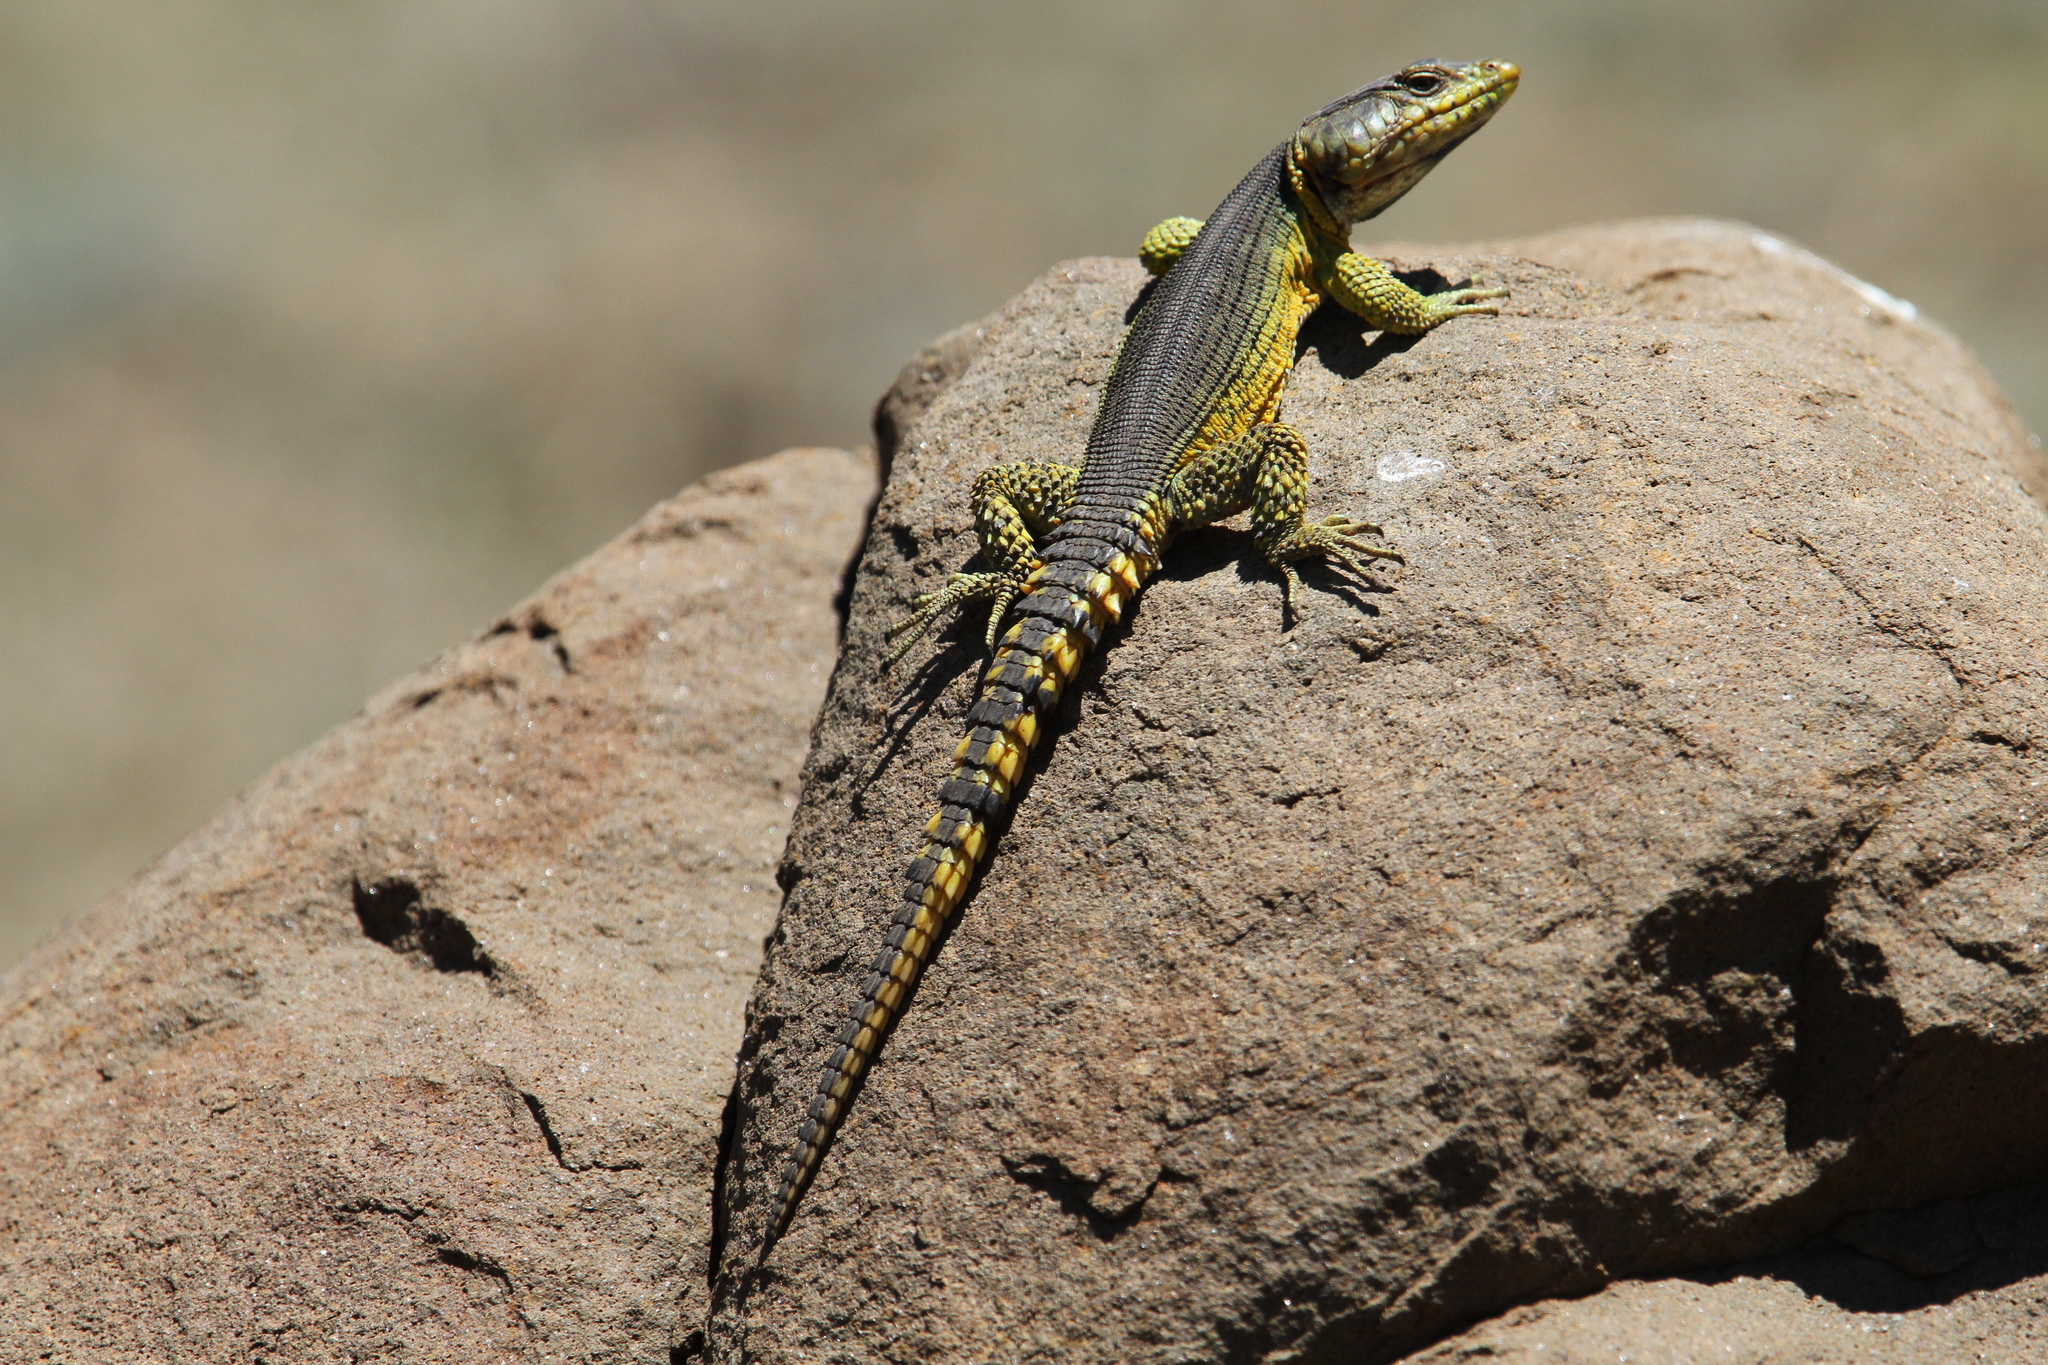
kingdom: Animalia
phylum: Chordata
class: Squamata
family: Cordylidae
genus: Pseudocordylus
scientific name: Pseudocordylus subviridis
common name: Drakensberg crag lizard
